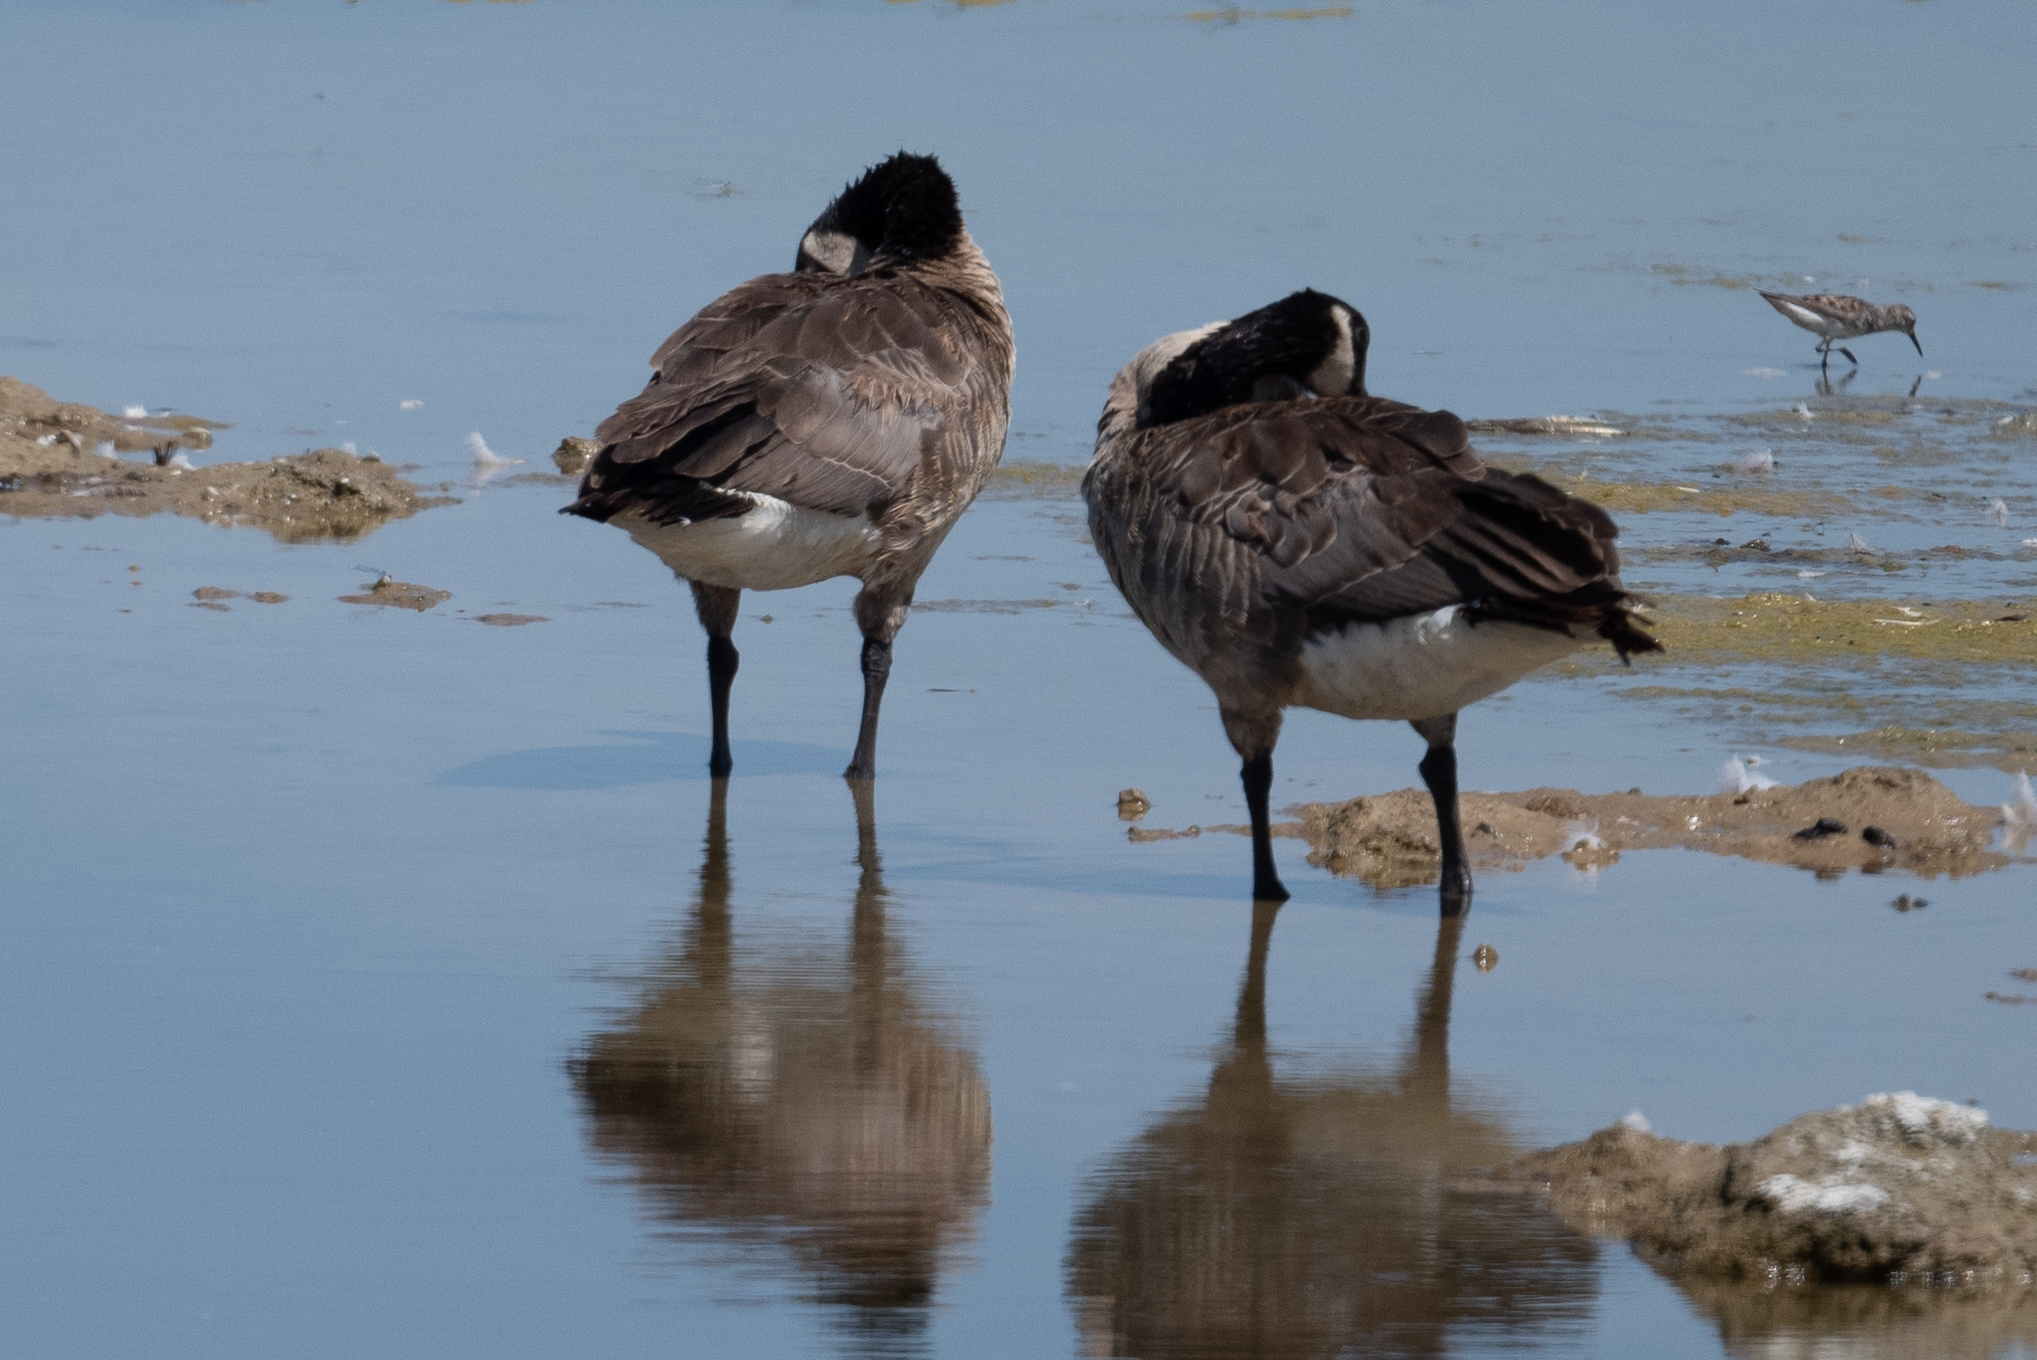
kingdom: Animalia
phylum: Chordata
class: Aves
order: Anseriformes
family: Anatidae
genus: Branta
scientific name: Branta canadensis
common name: Canada goose
